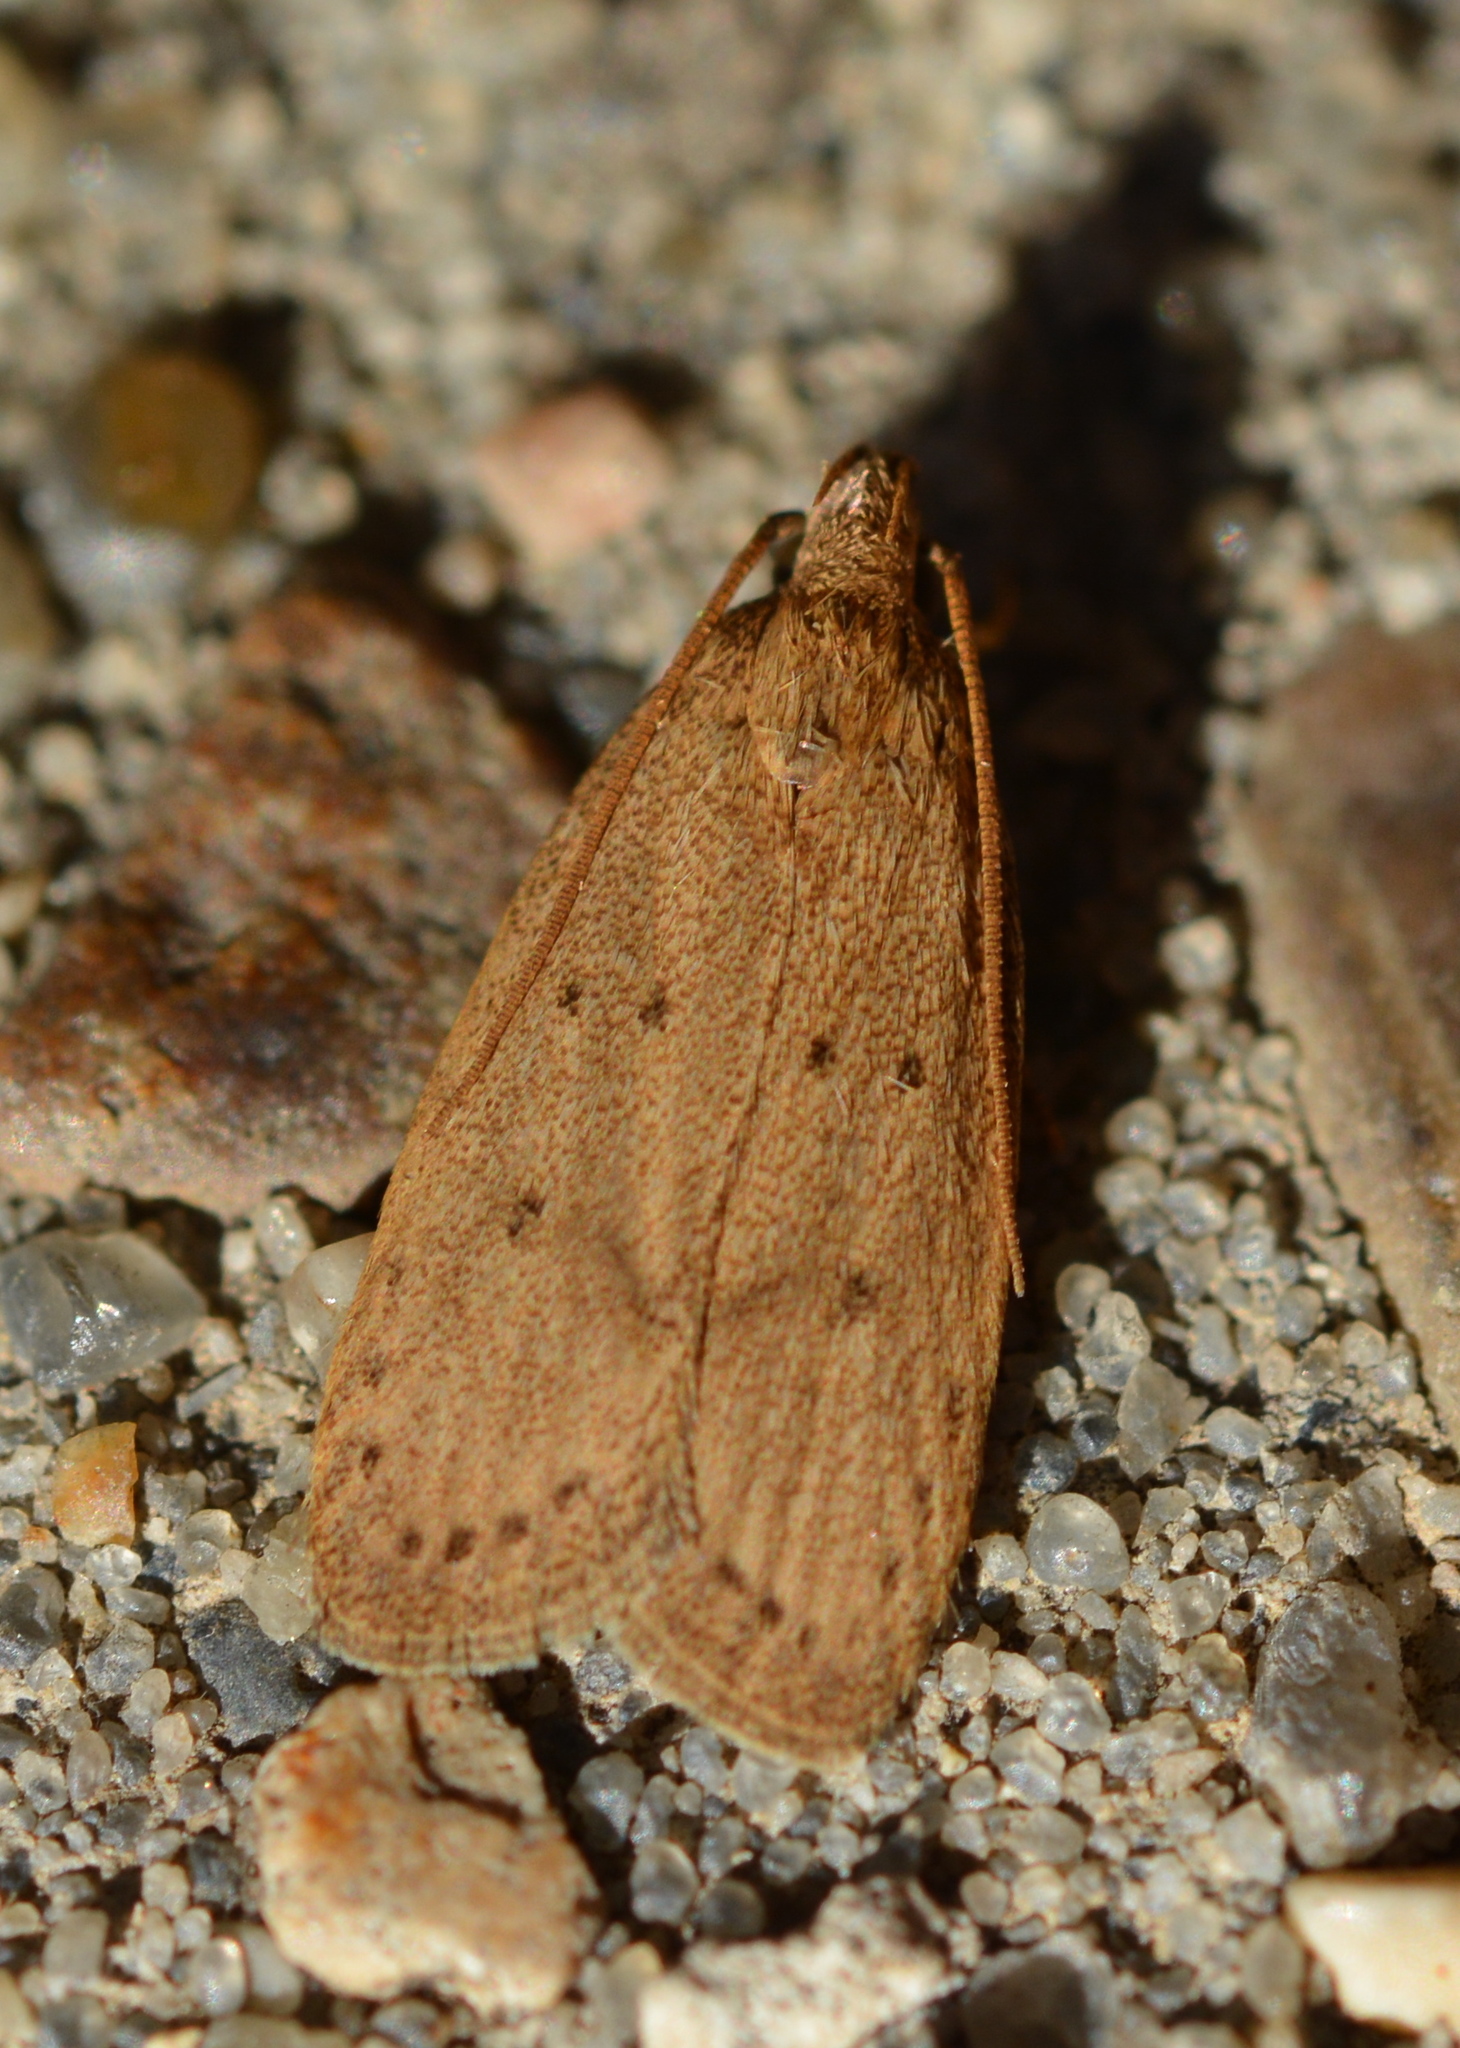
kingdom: Animalia
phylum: Arthropoda
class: Insecta
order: Lepidoptera
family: Autostichidae
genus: Autosticha
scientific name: Autosticha kyotensis
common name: Kyoto moth
